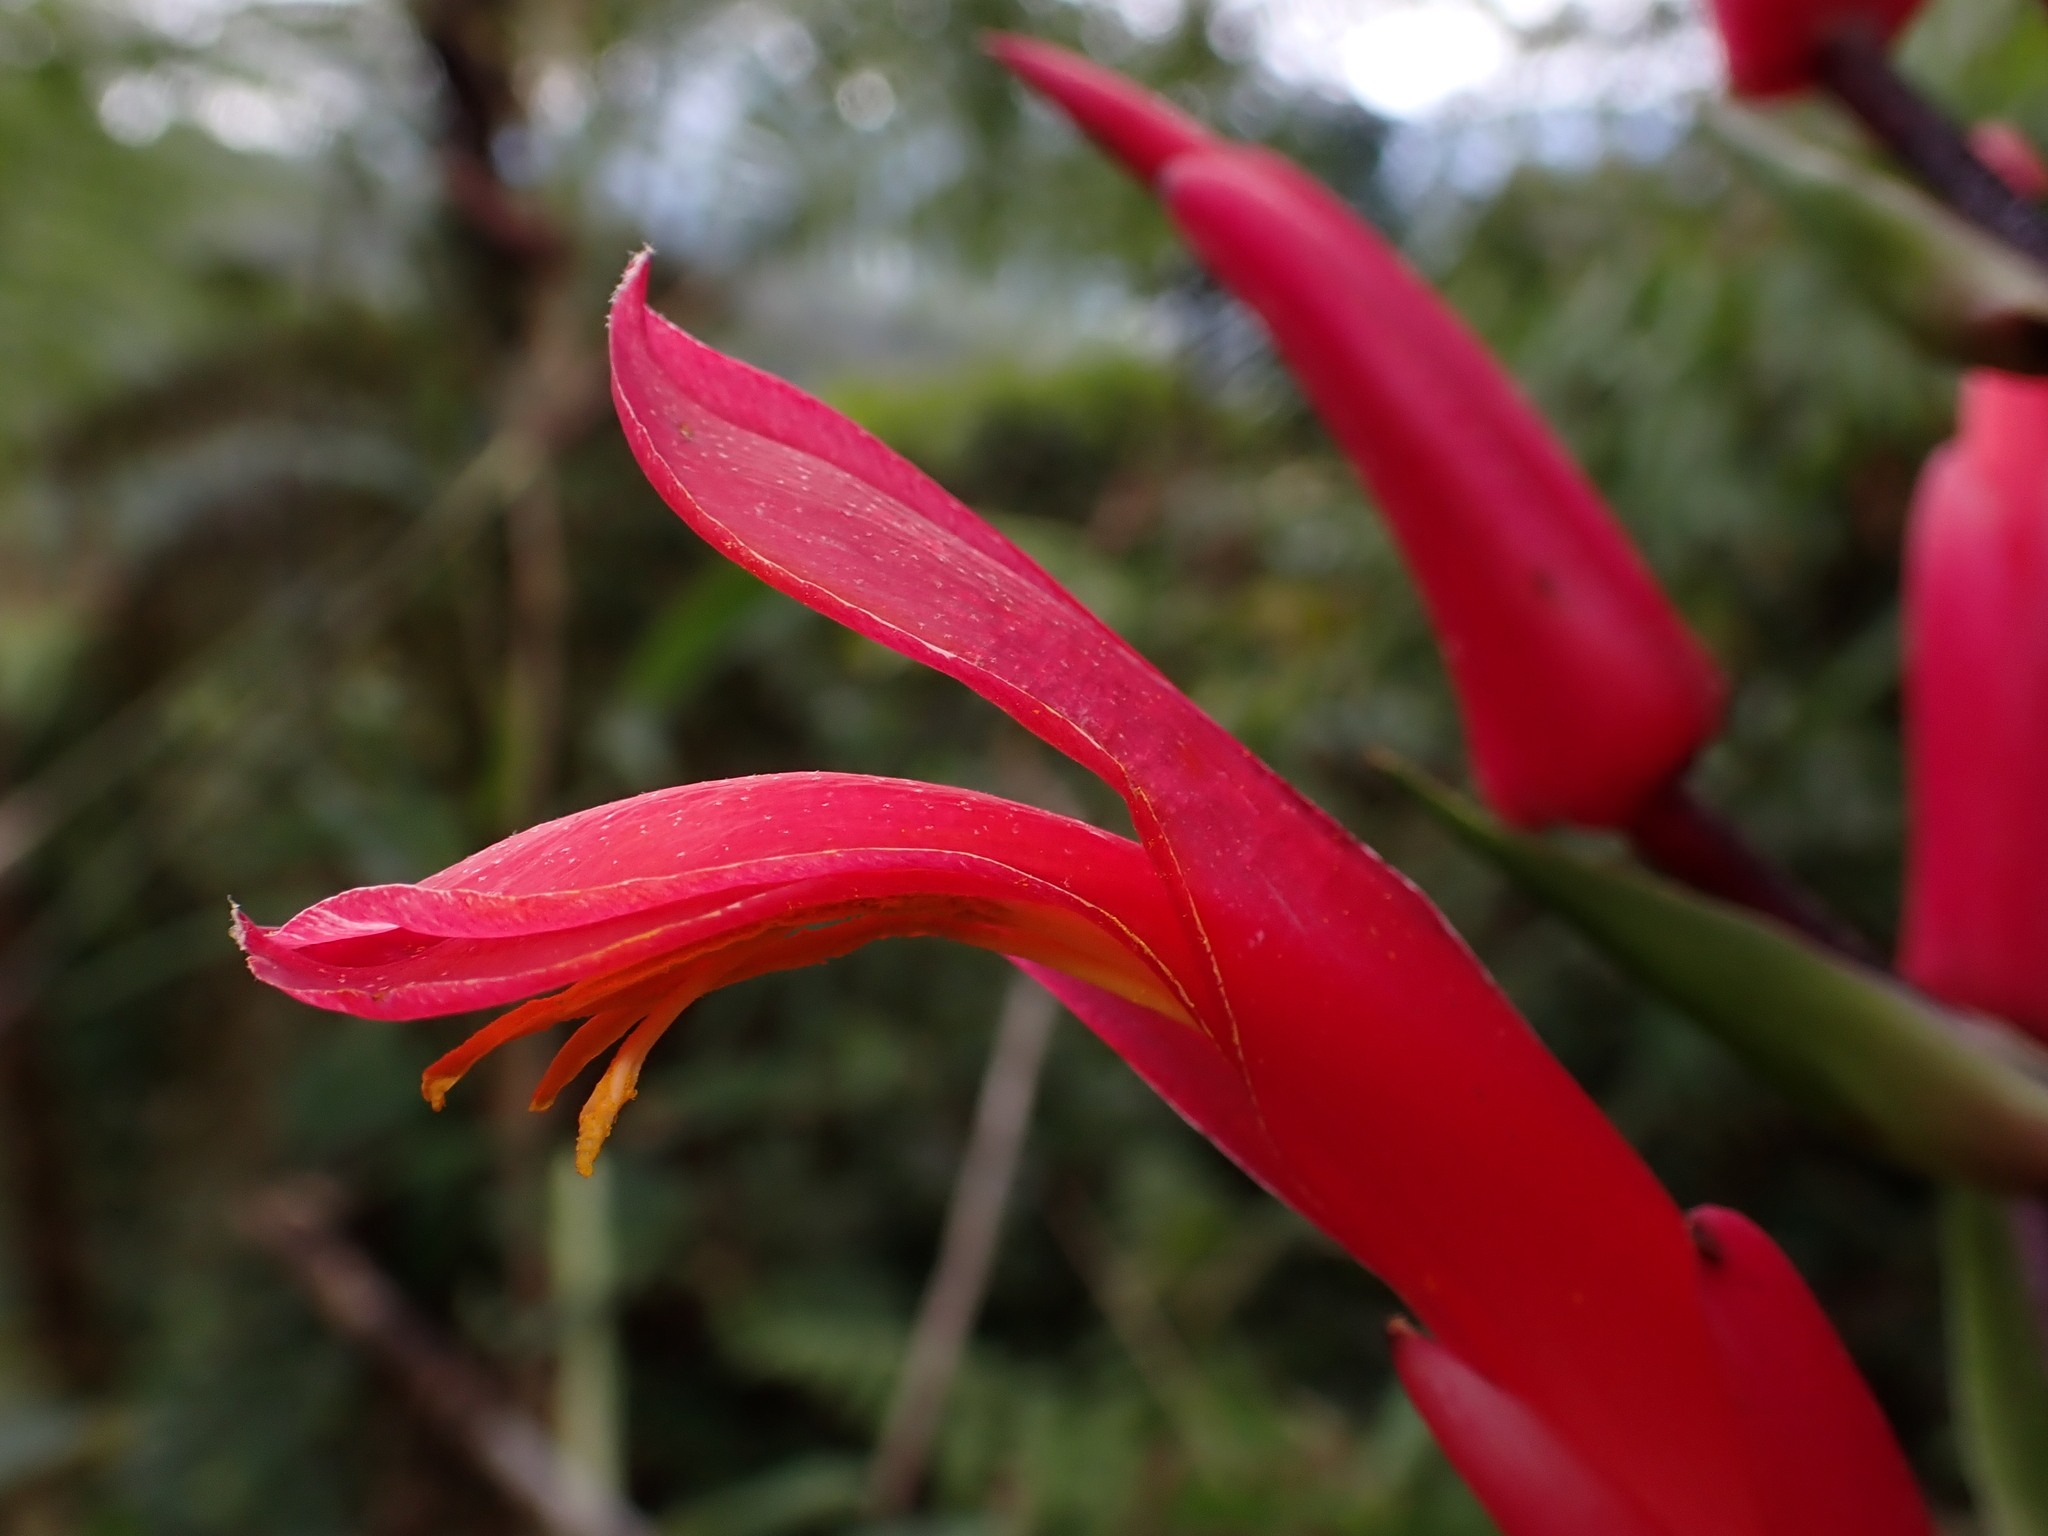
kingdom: Plantae
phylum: Tracheophyta
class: Liliopsida
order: Poales
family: Bromeliaceae
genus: Pitcairnia
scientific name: Pitcairnia hooveri
